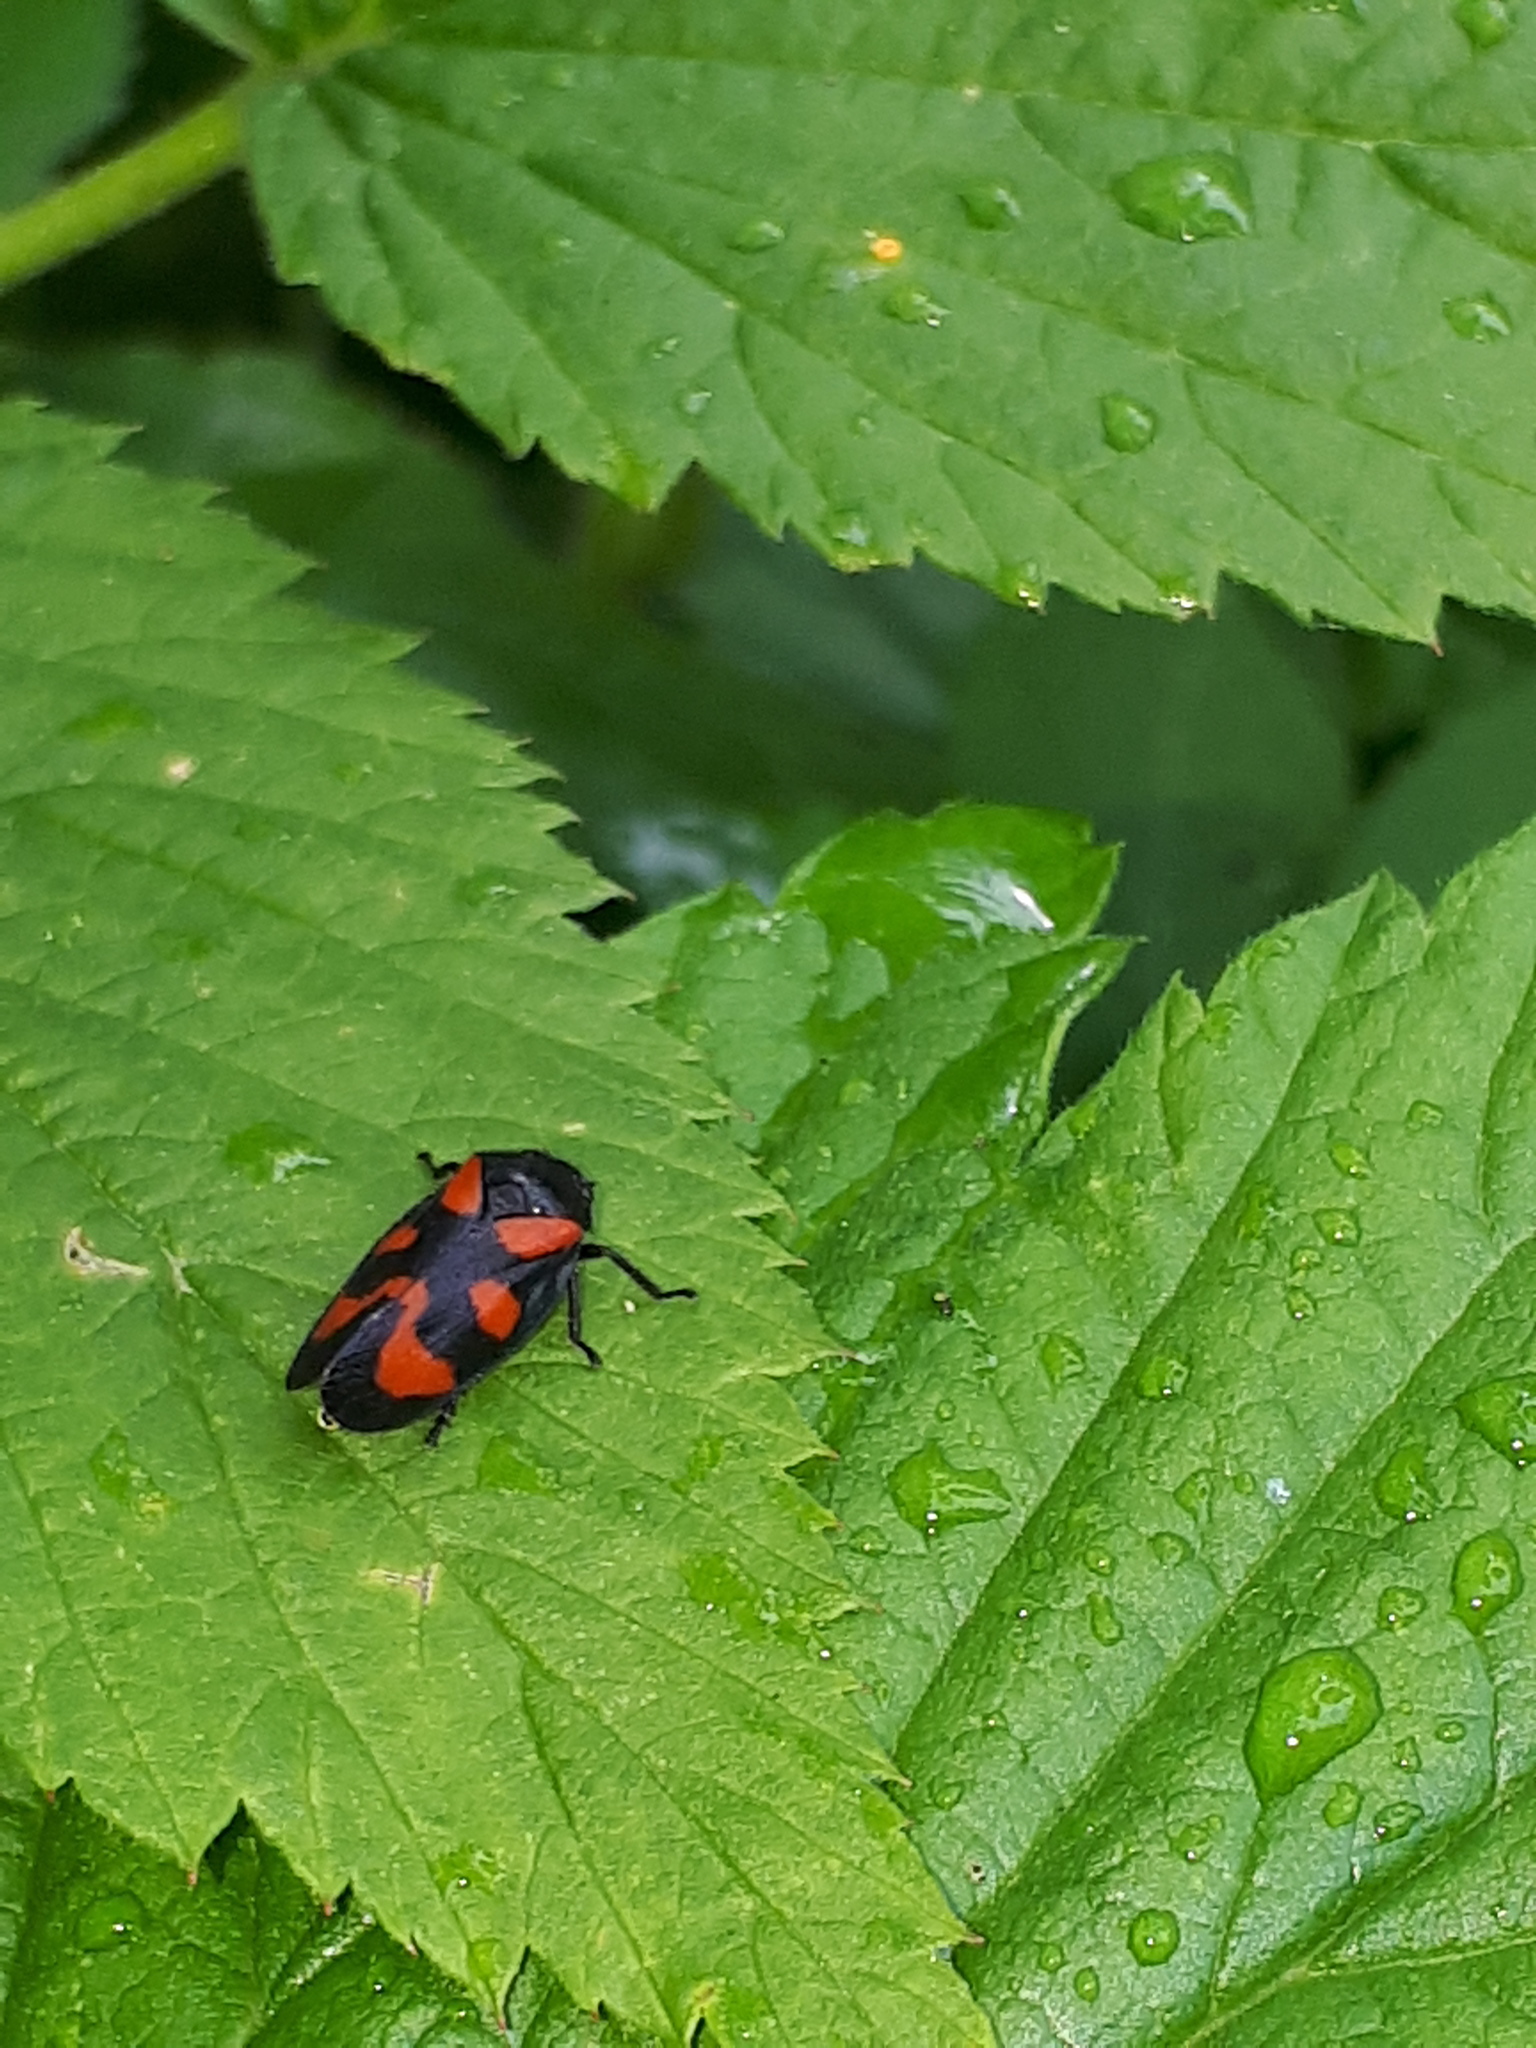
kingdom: Animalia
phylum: Arthropoda
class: Insecta
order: Hemiptera
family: Cercopidae
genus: Cercopis
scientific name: Cercopis vulnerata
